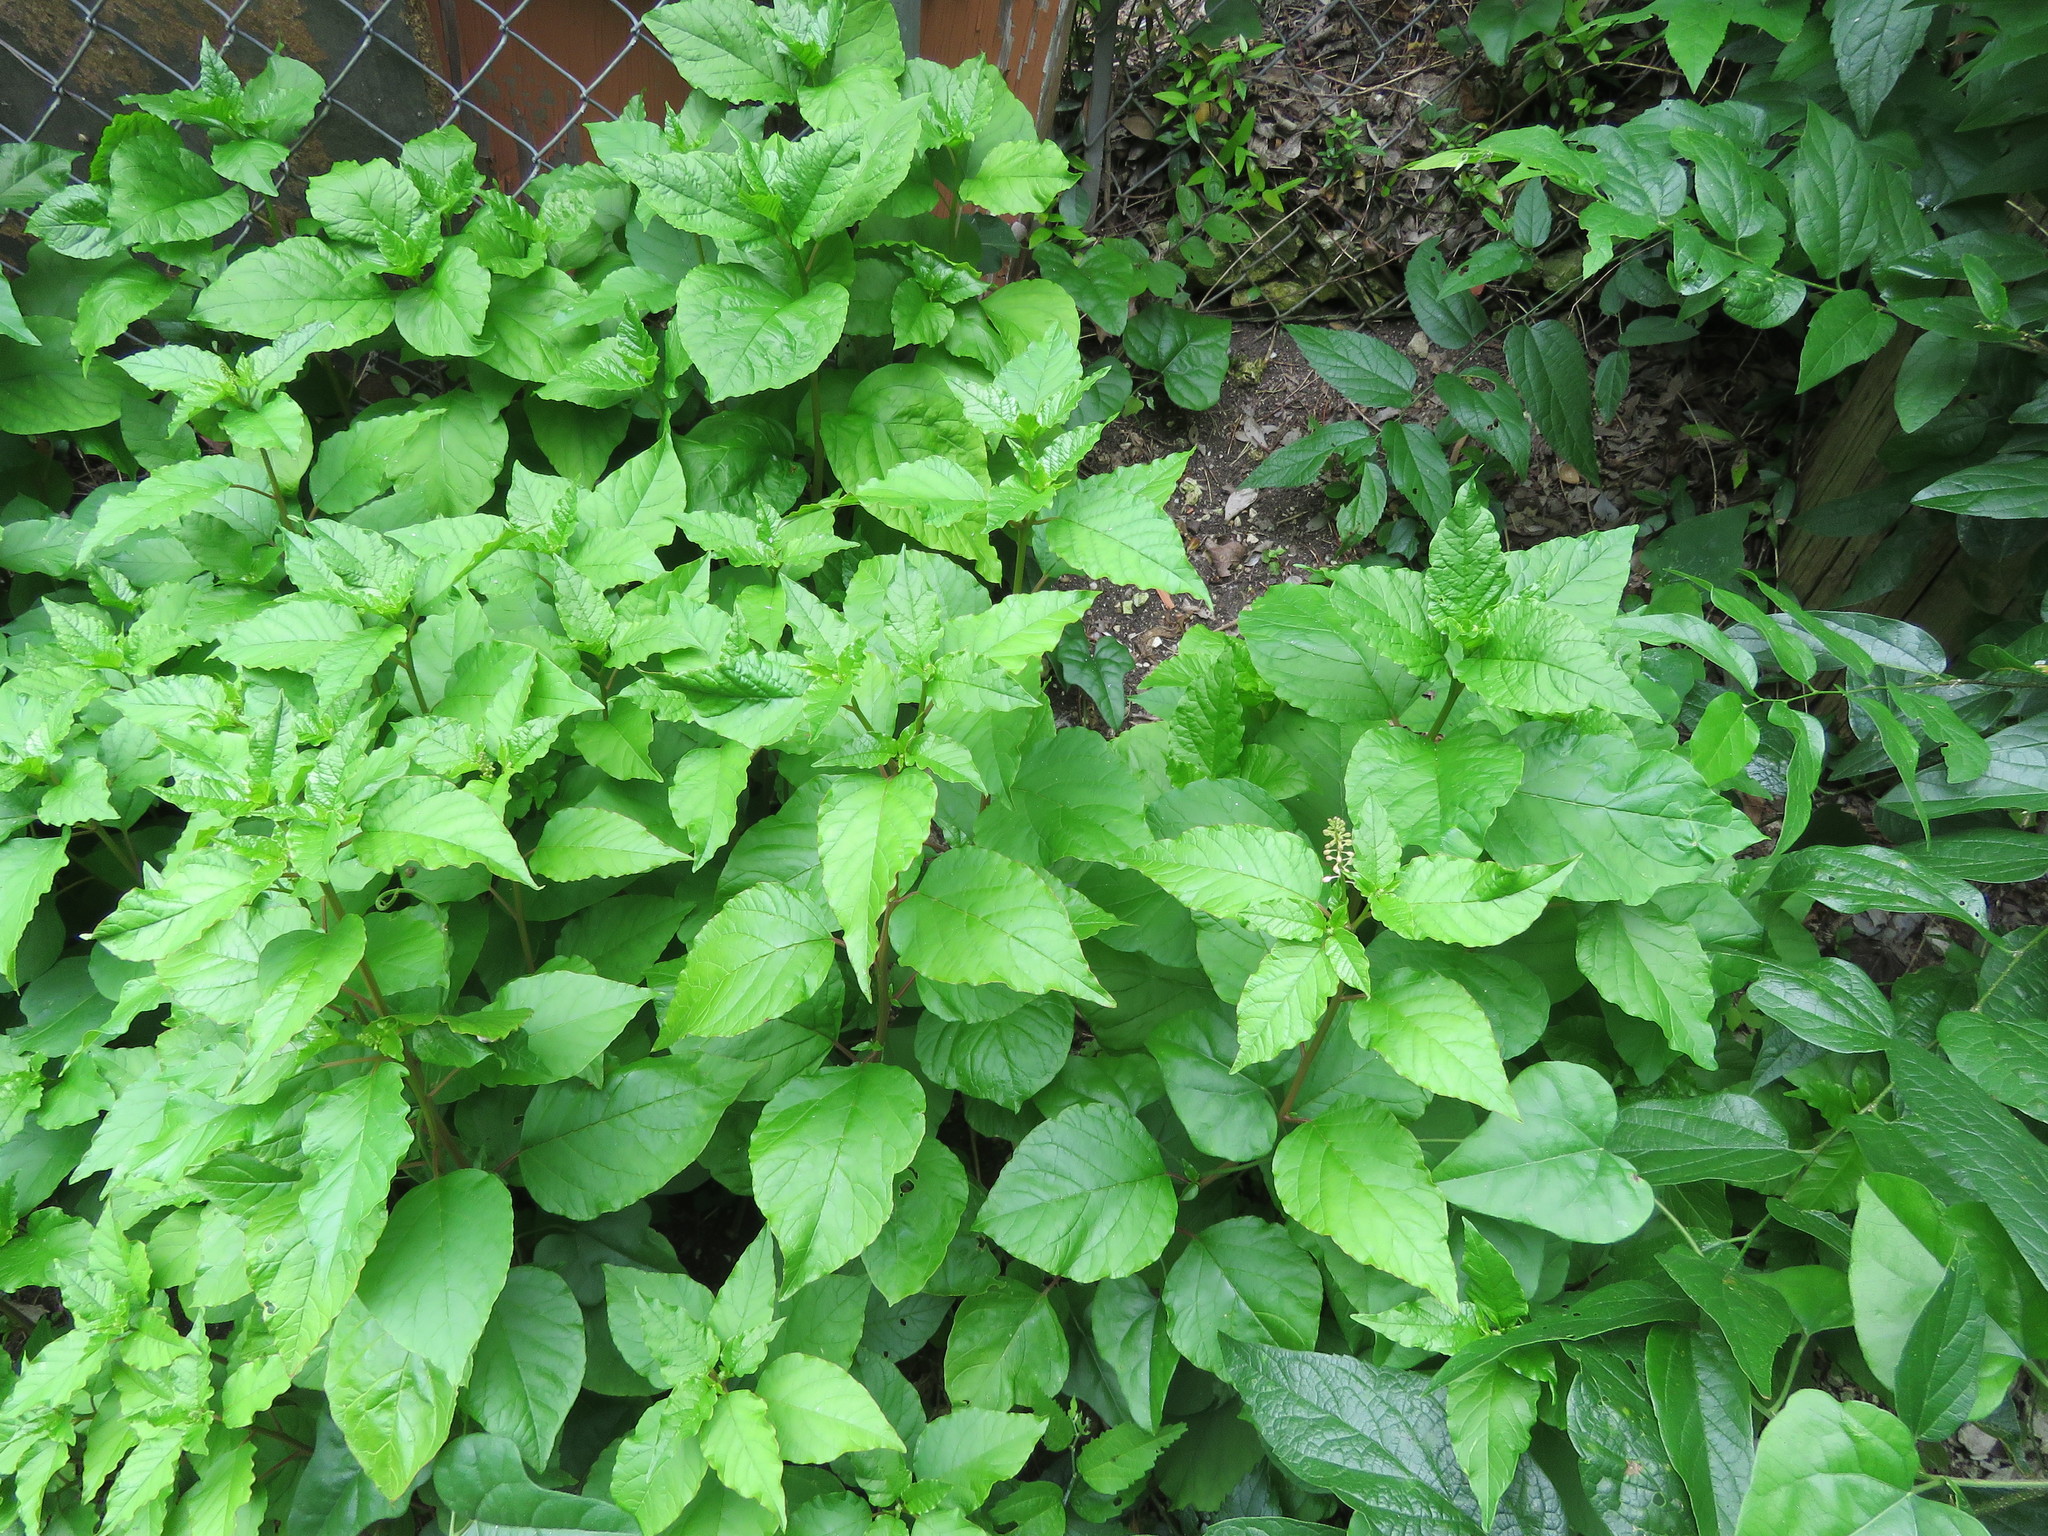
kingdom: Plantae
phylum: Tracheophyta
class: Magnoliopsida
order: Caryophyllales
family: Phytolaccaceae
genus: Rivina
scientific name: Rivina humilis
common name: Rougeplant
